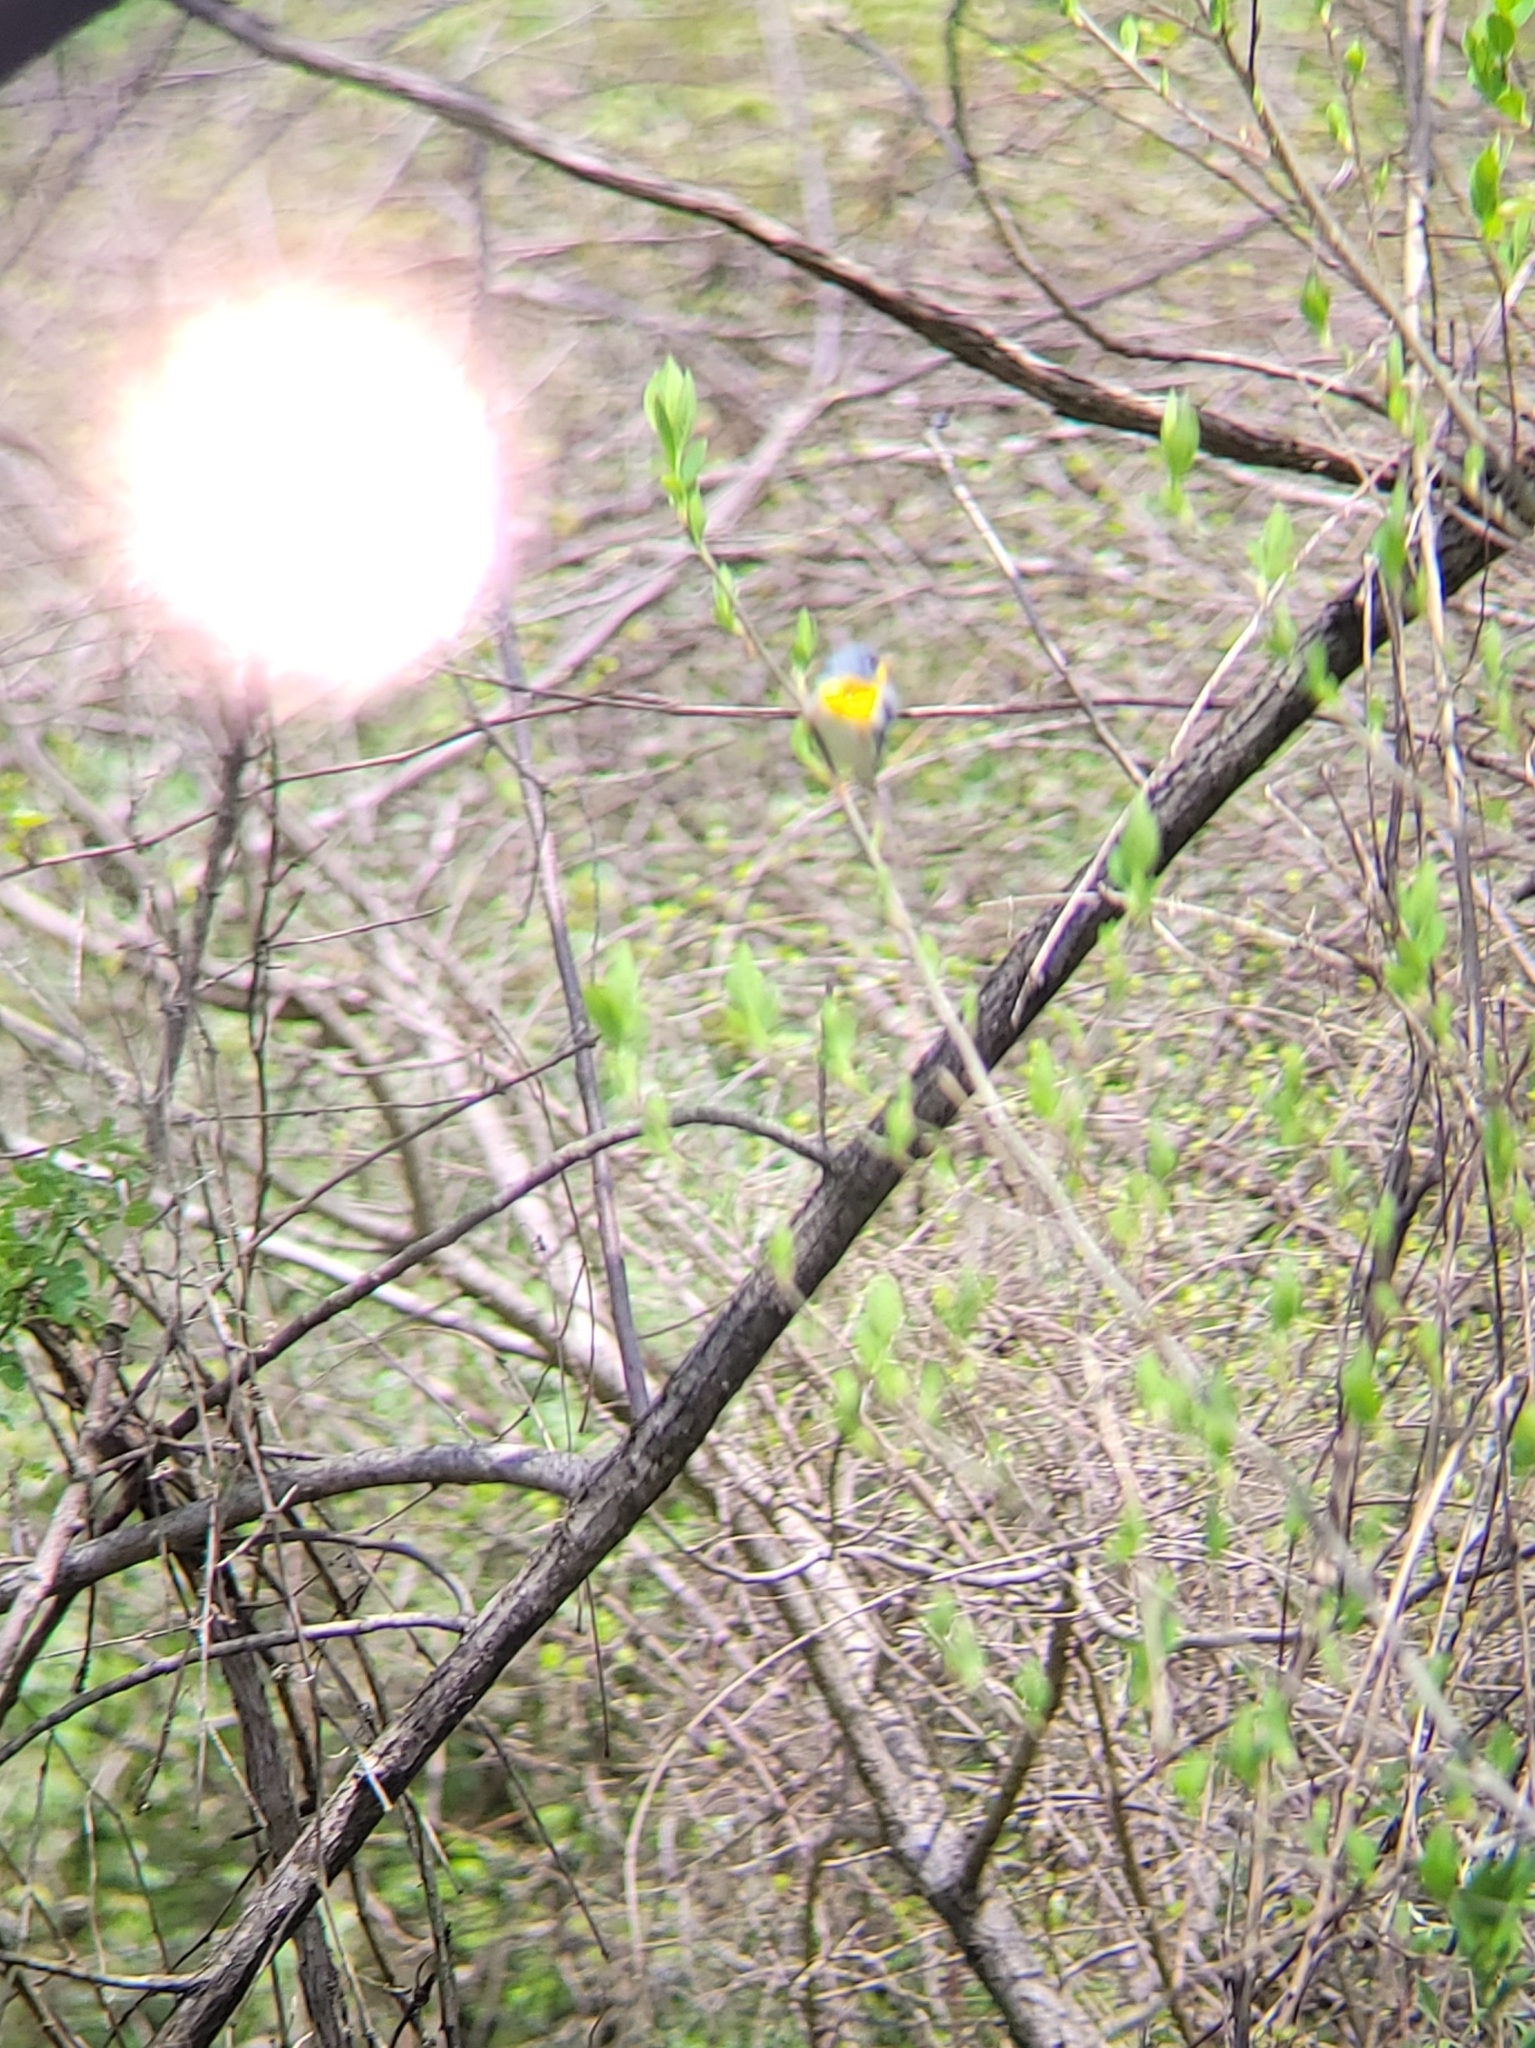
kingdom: Animalia
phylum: Chordata
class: Aves
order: Passeriformes
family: Parulidae
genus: Setophaga
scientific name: Setophaga americana
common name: Northern parula
